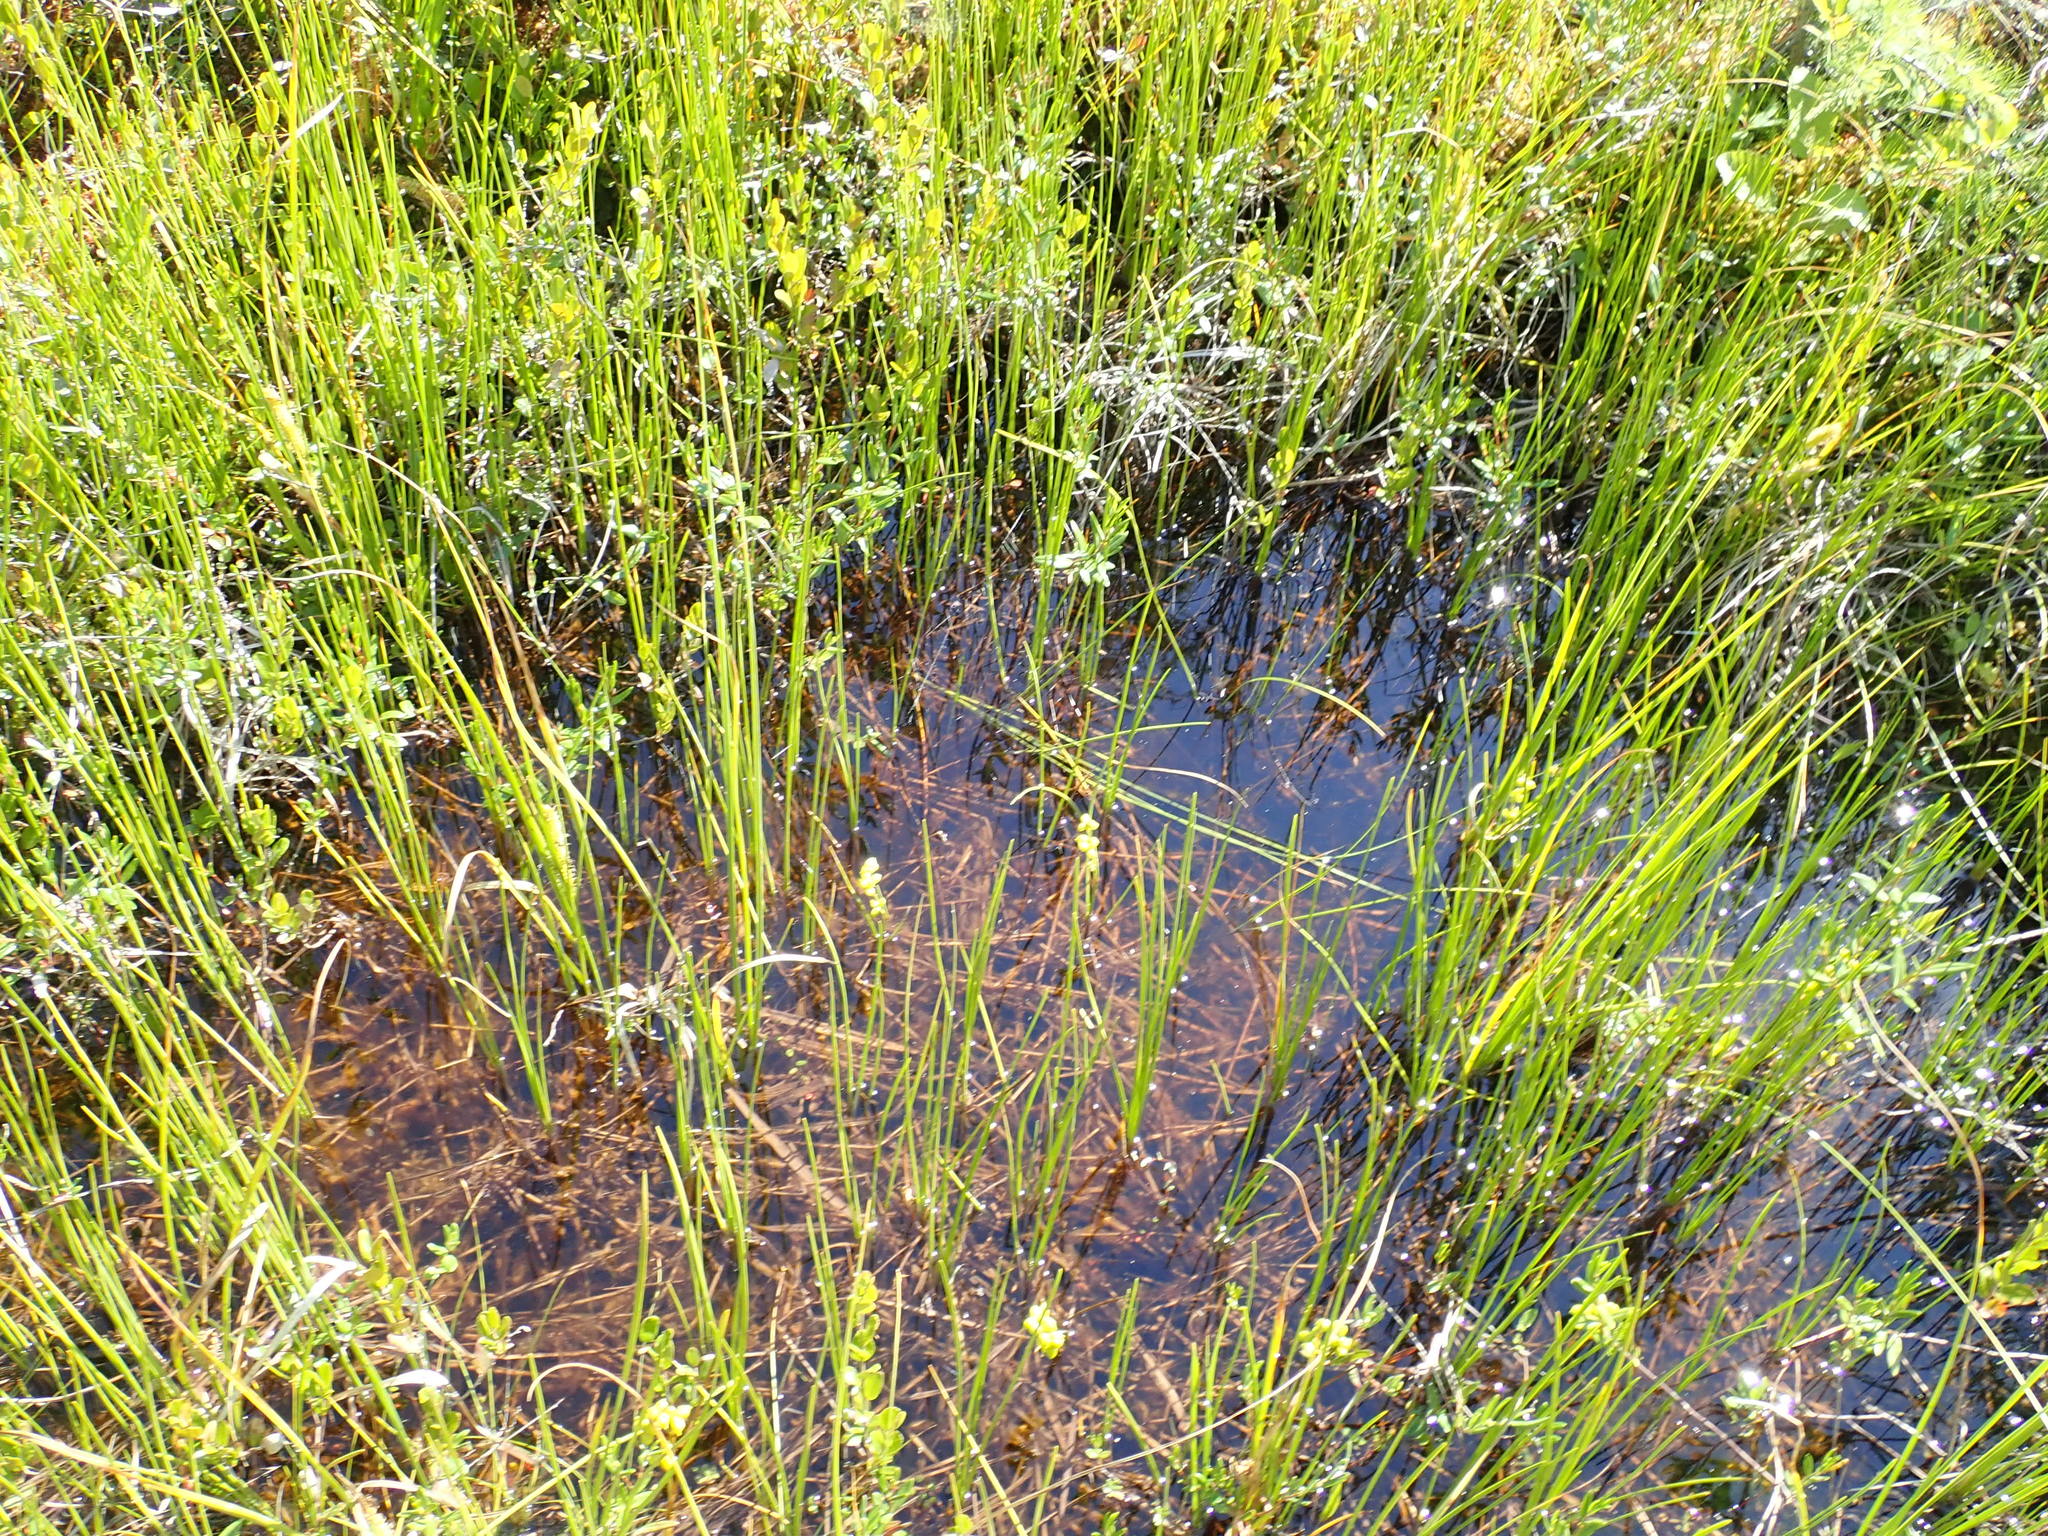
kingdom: Plantae
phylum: Tracheophyta
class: Liliopsida
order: Alismatales
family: Scheuchzeriaceae
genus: Scheuchzeria
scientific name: Scheuchzeria palustris
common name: Rannoch-rush
